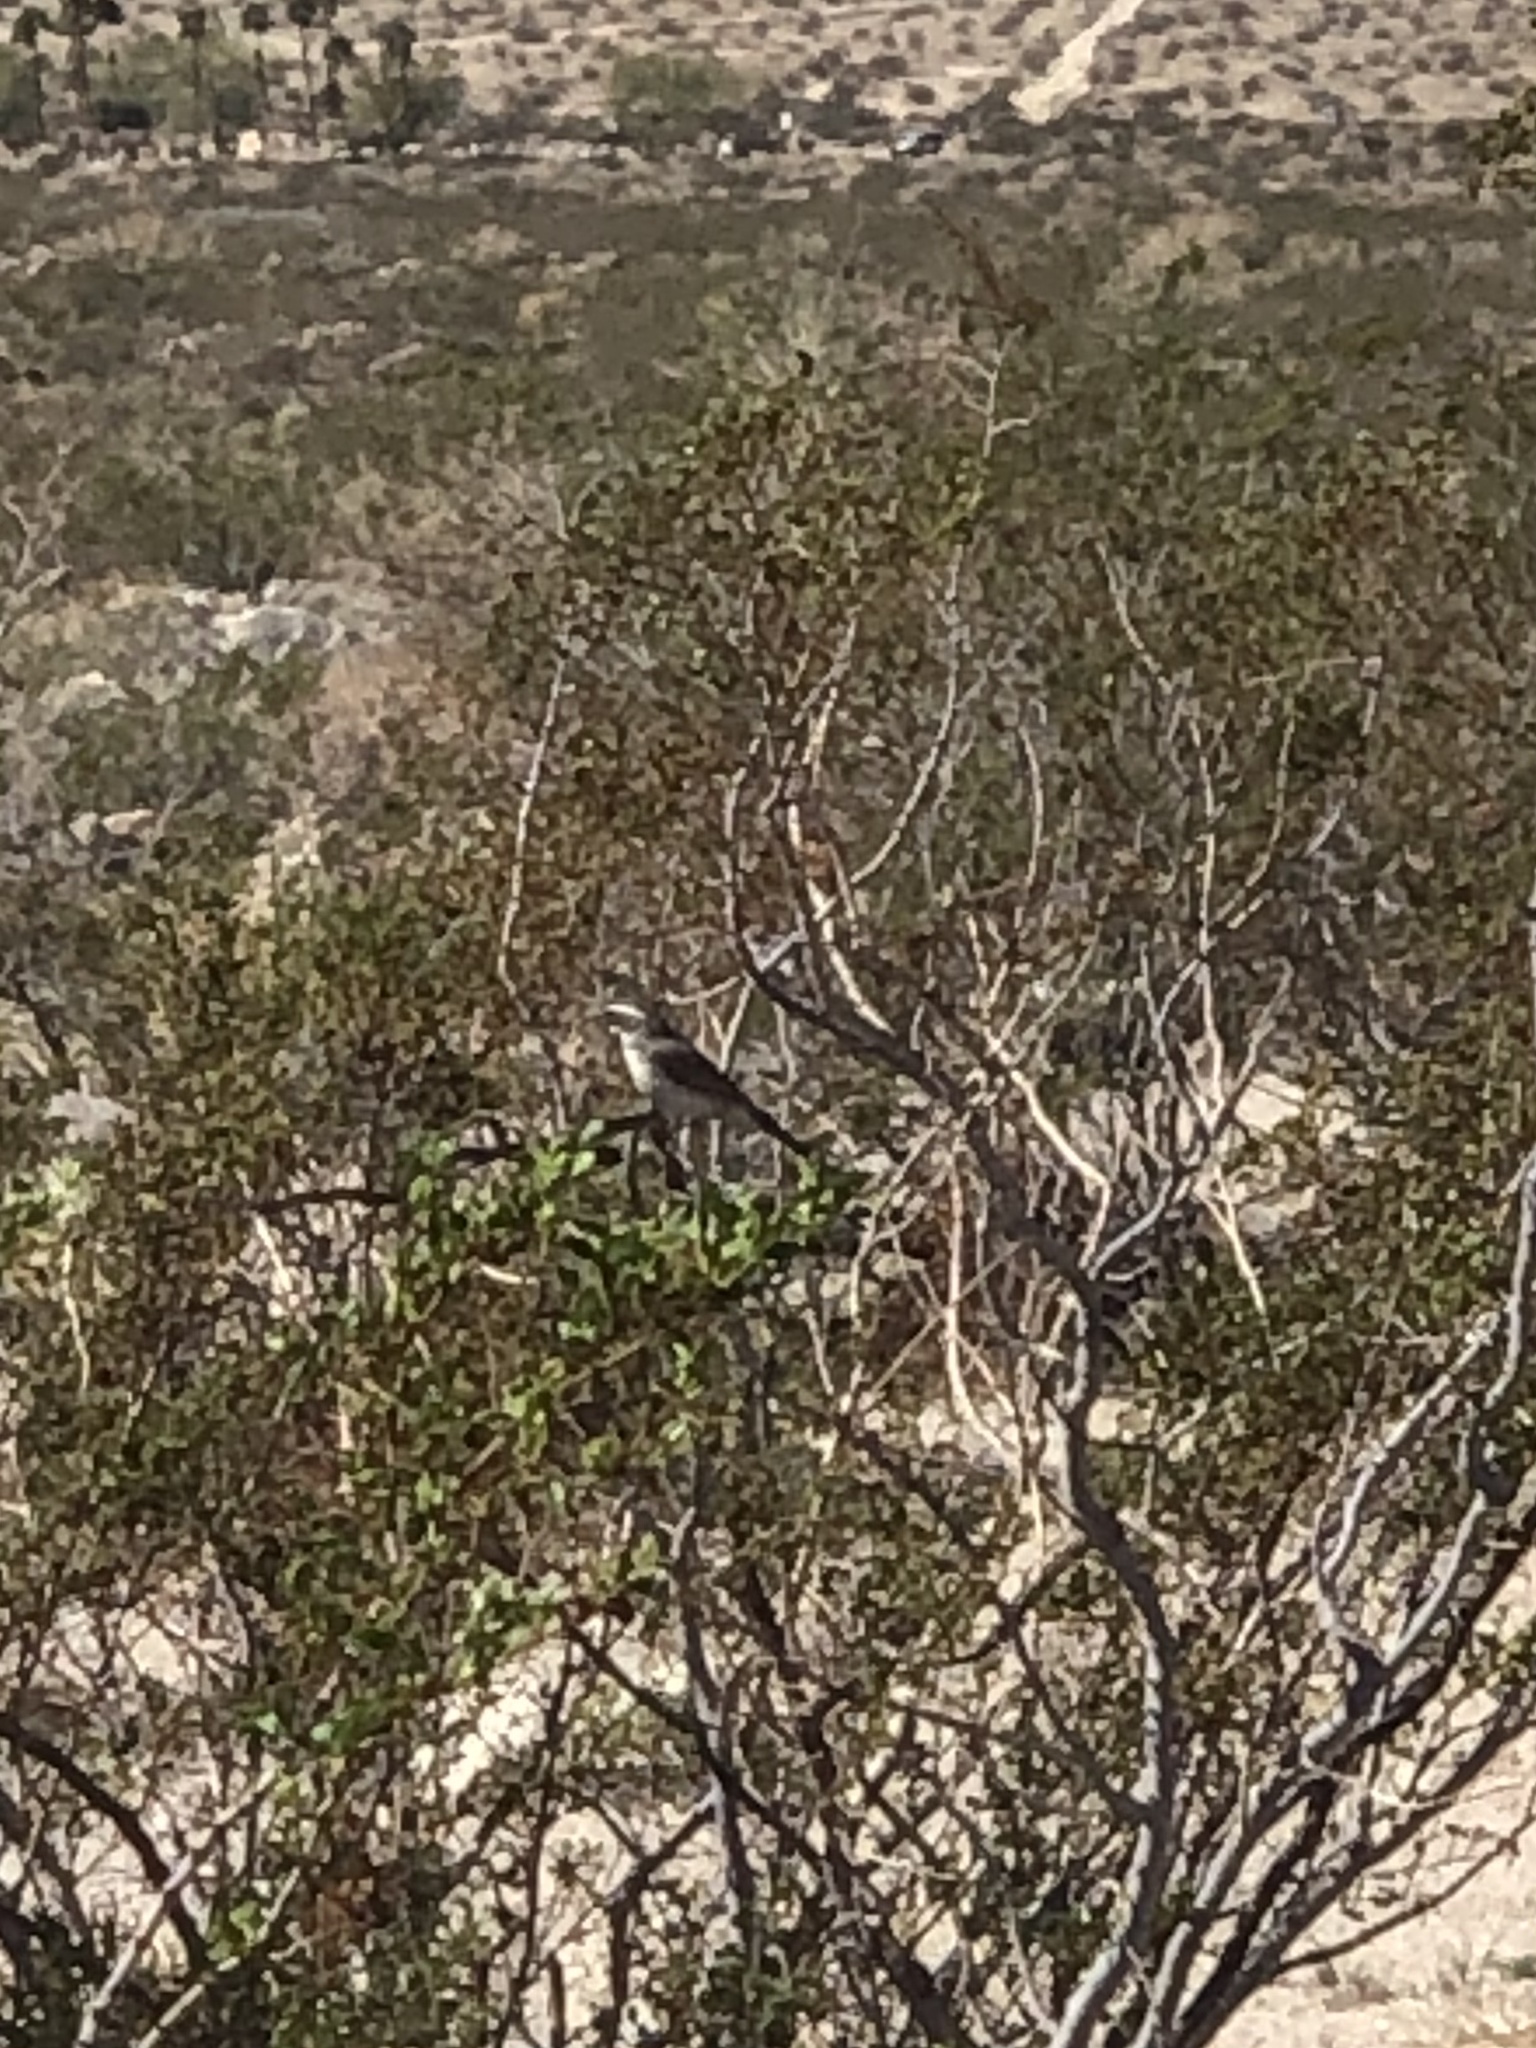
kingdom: Animalia
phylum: Chordata
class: Aves
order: Passeriformes
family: Passerellidae
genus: Amphispiza
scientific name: Amphispiza bilineata
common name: Black-throated sparrow
